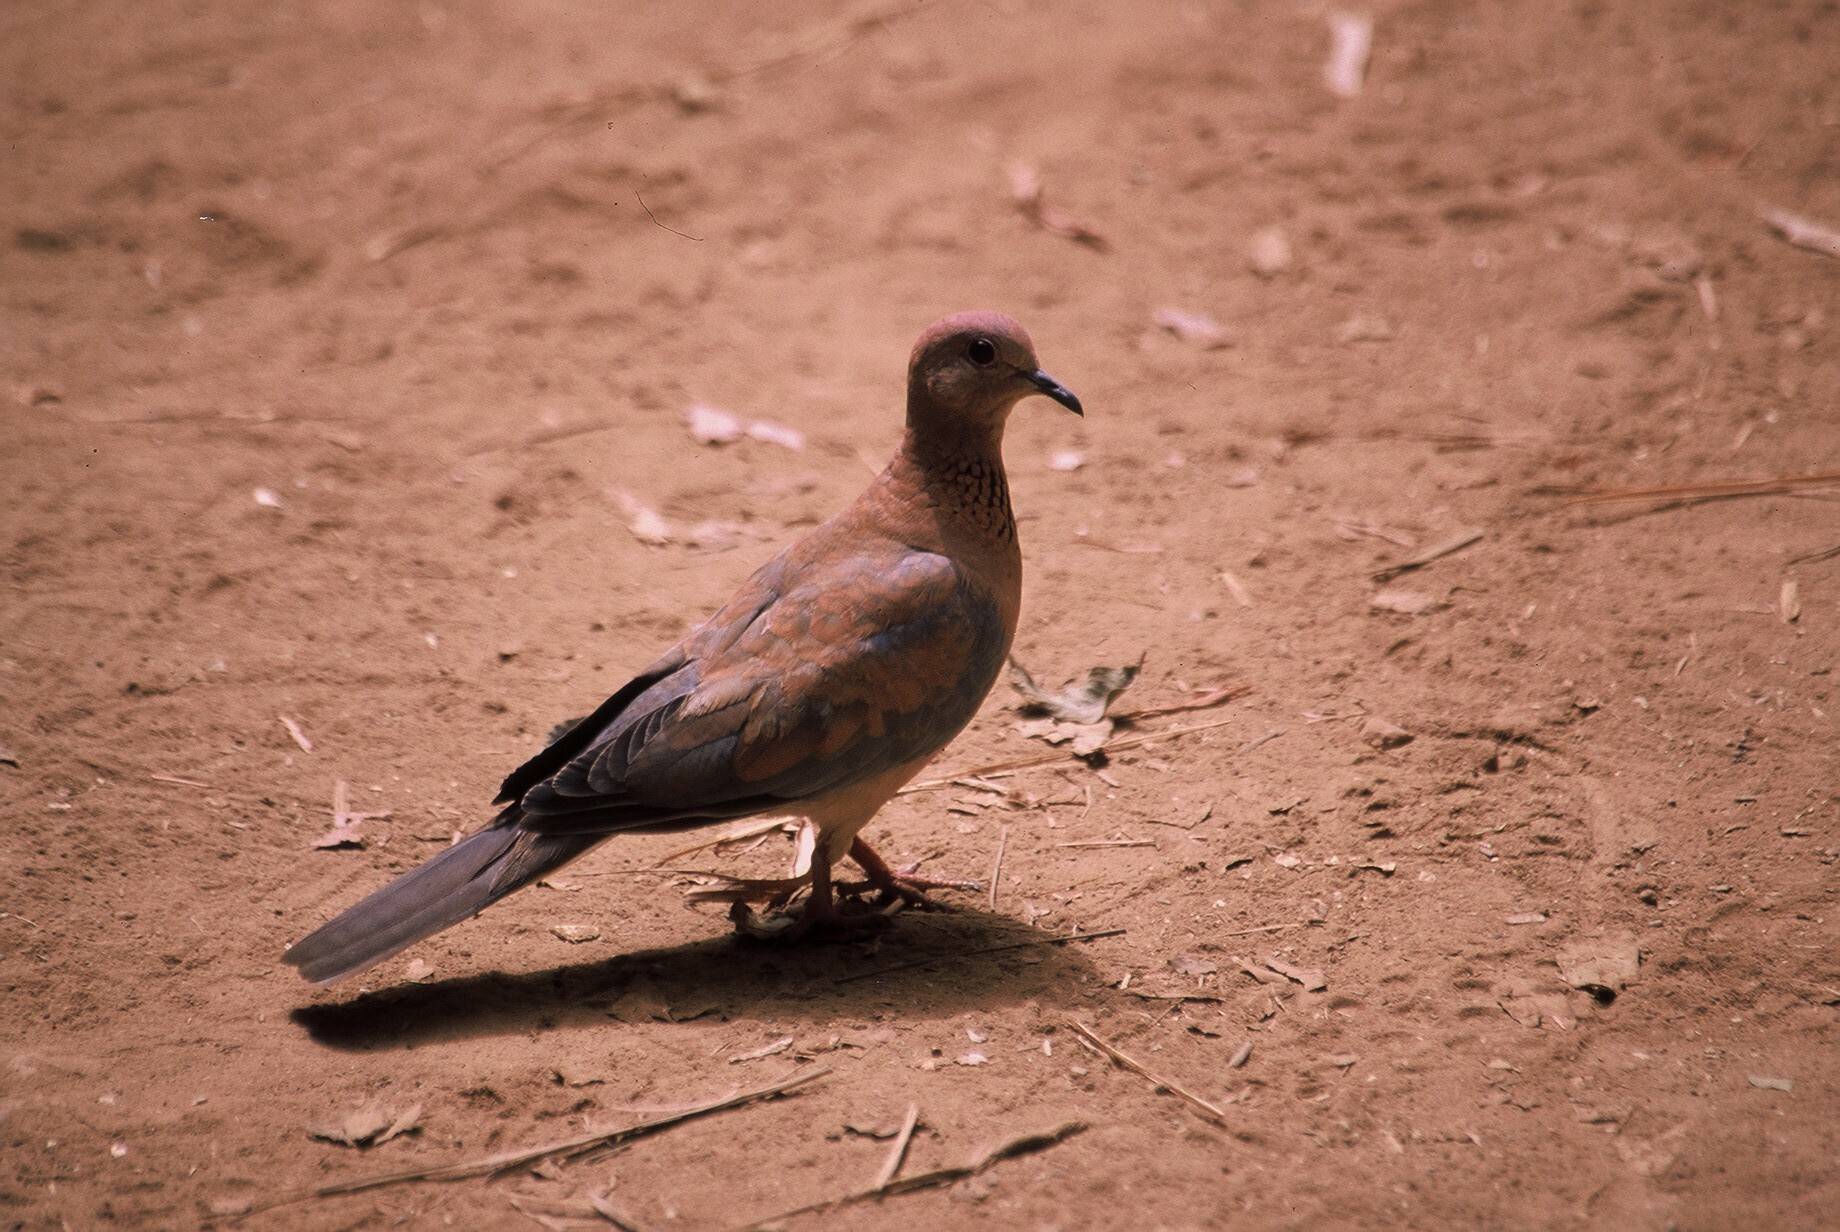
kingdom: Animalia
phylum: Chordata
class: Aves
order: Columbiformes
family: Columbidae
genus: Spilopelia
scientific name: Spilopelia senegalensis
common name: Laughing dove
